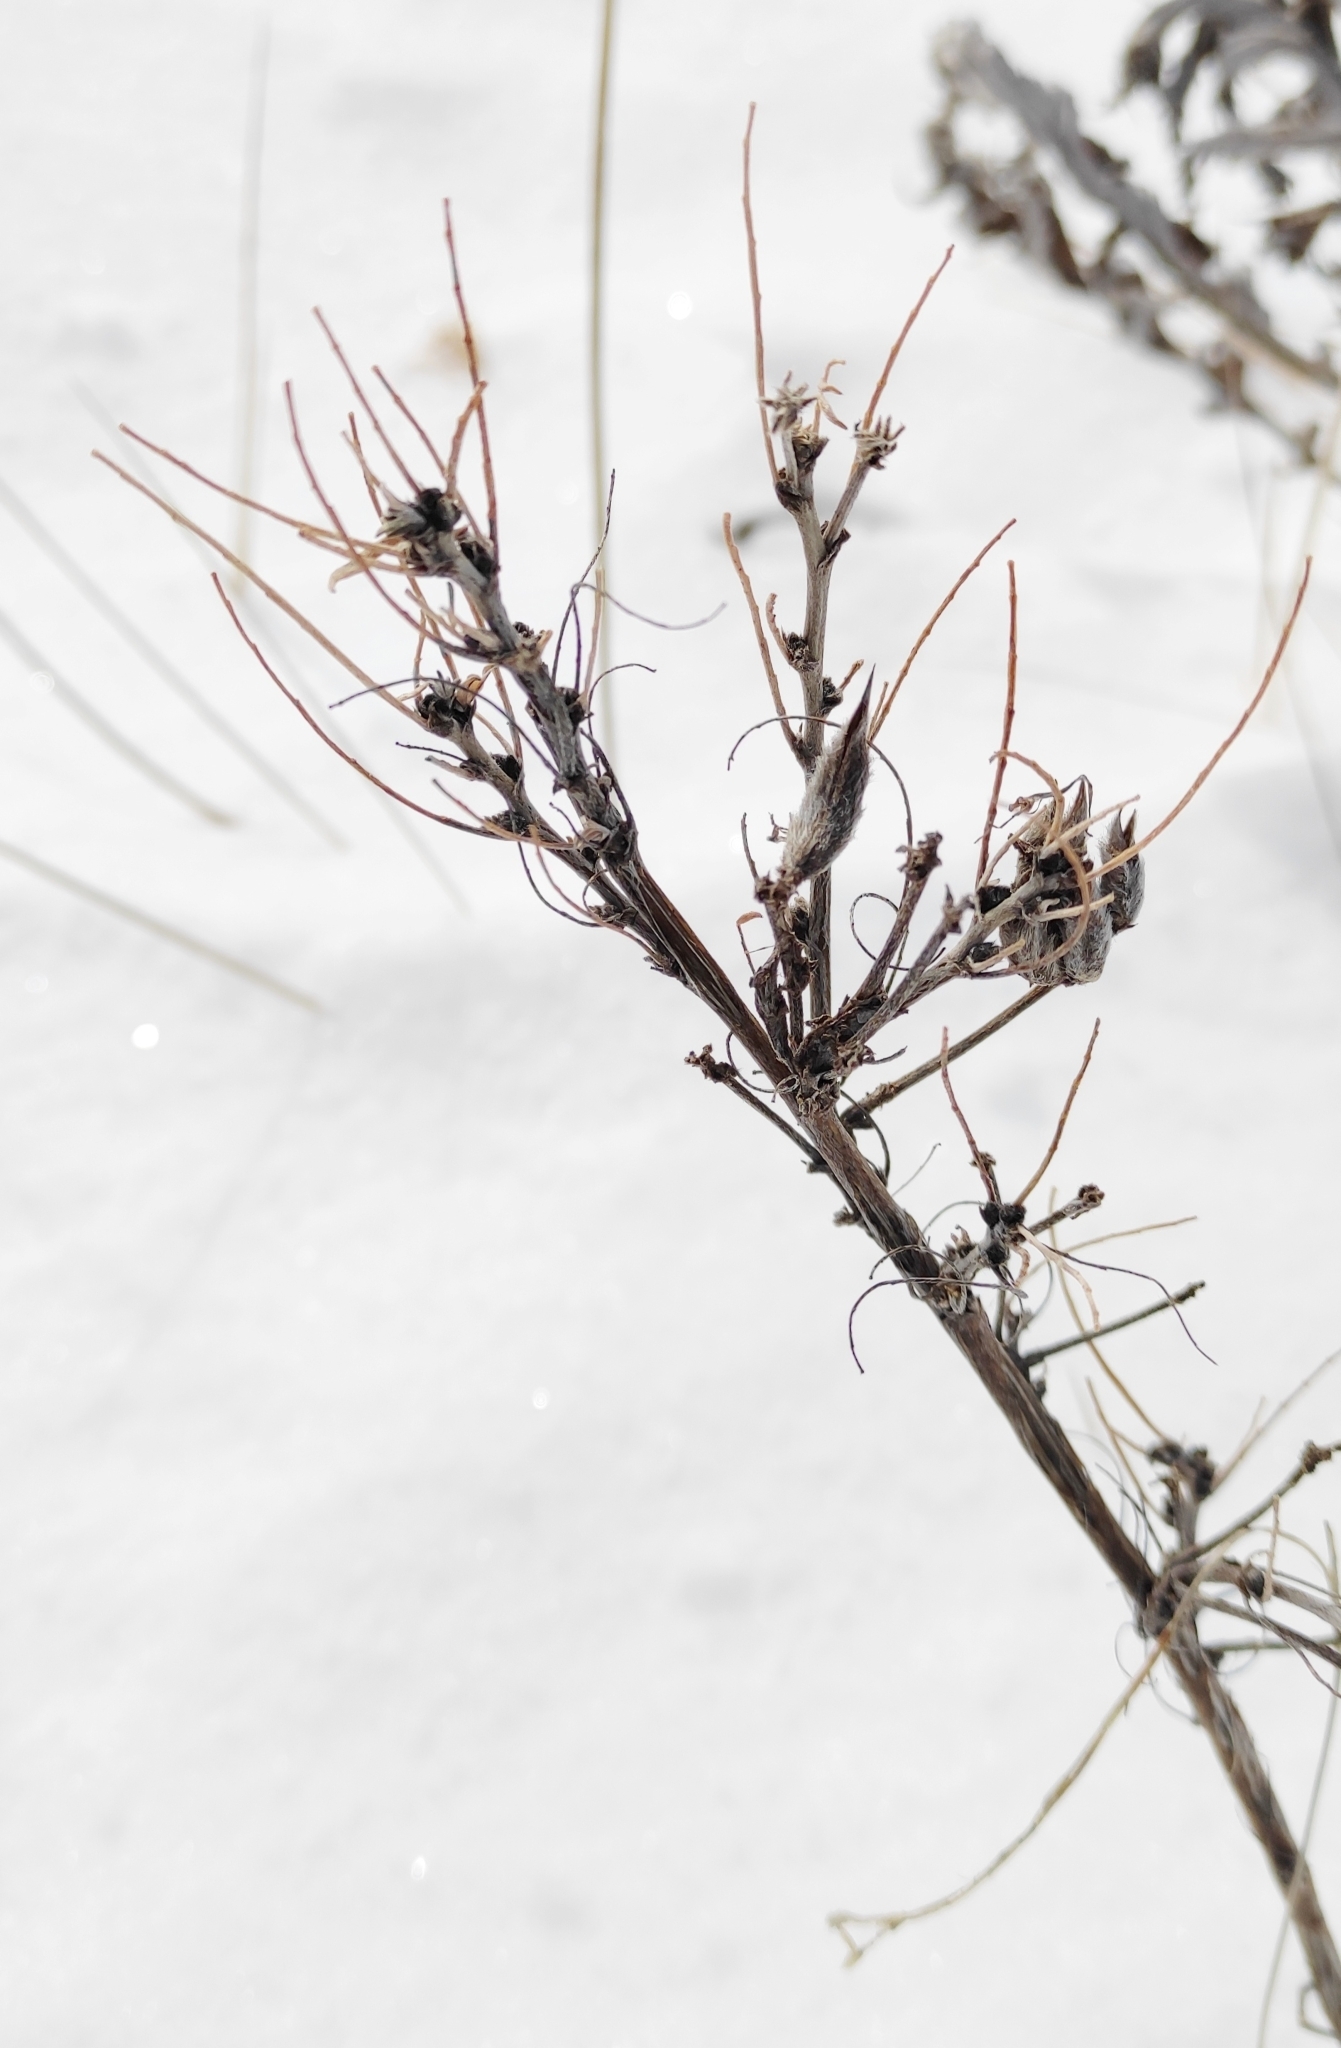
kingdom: Plantae
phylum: Tracheophyta
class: Magnoliopsida
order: Fabales
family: Fabaceae
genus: Astragalus
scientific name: Astragalus syriacus
